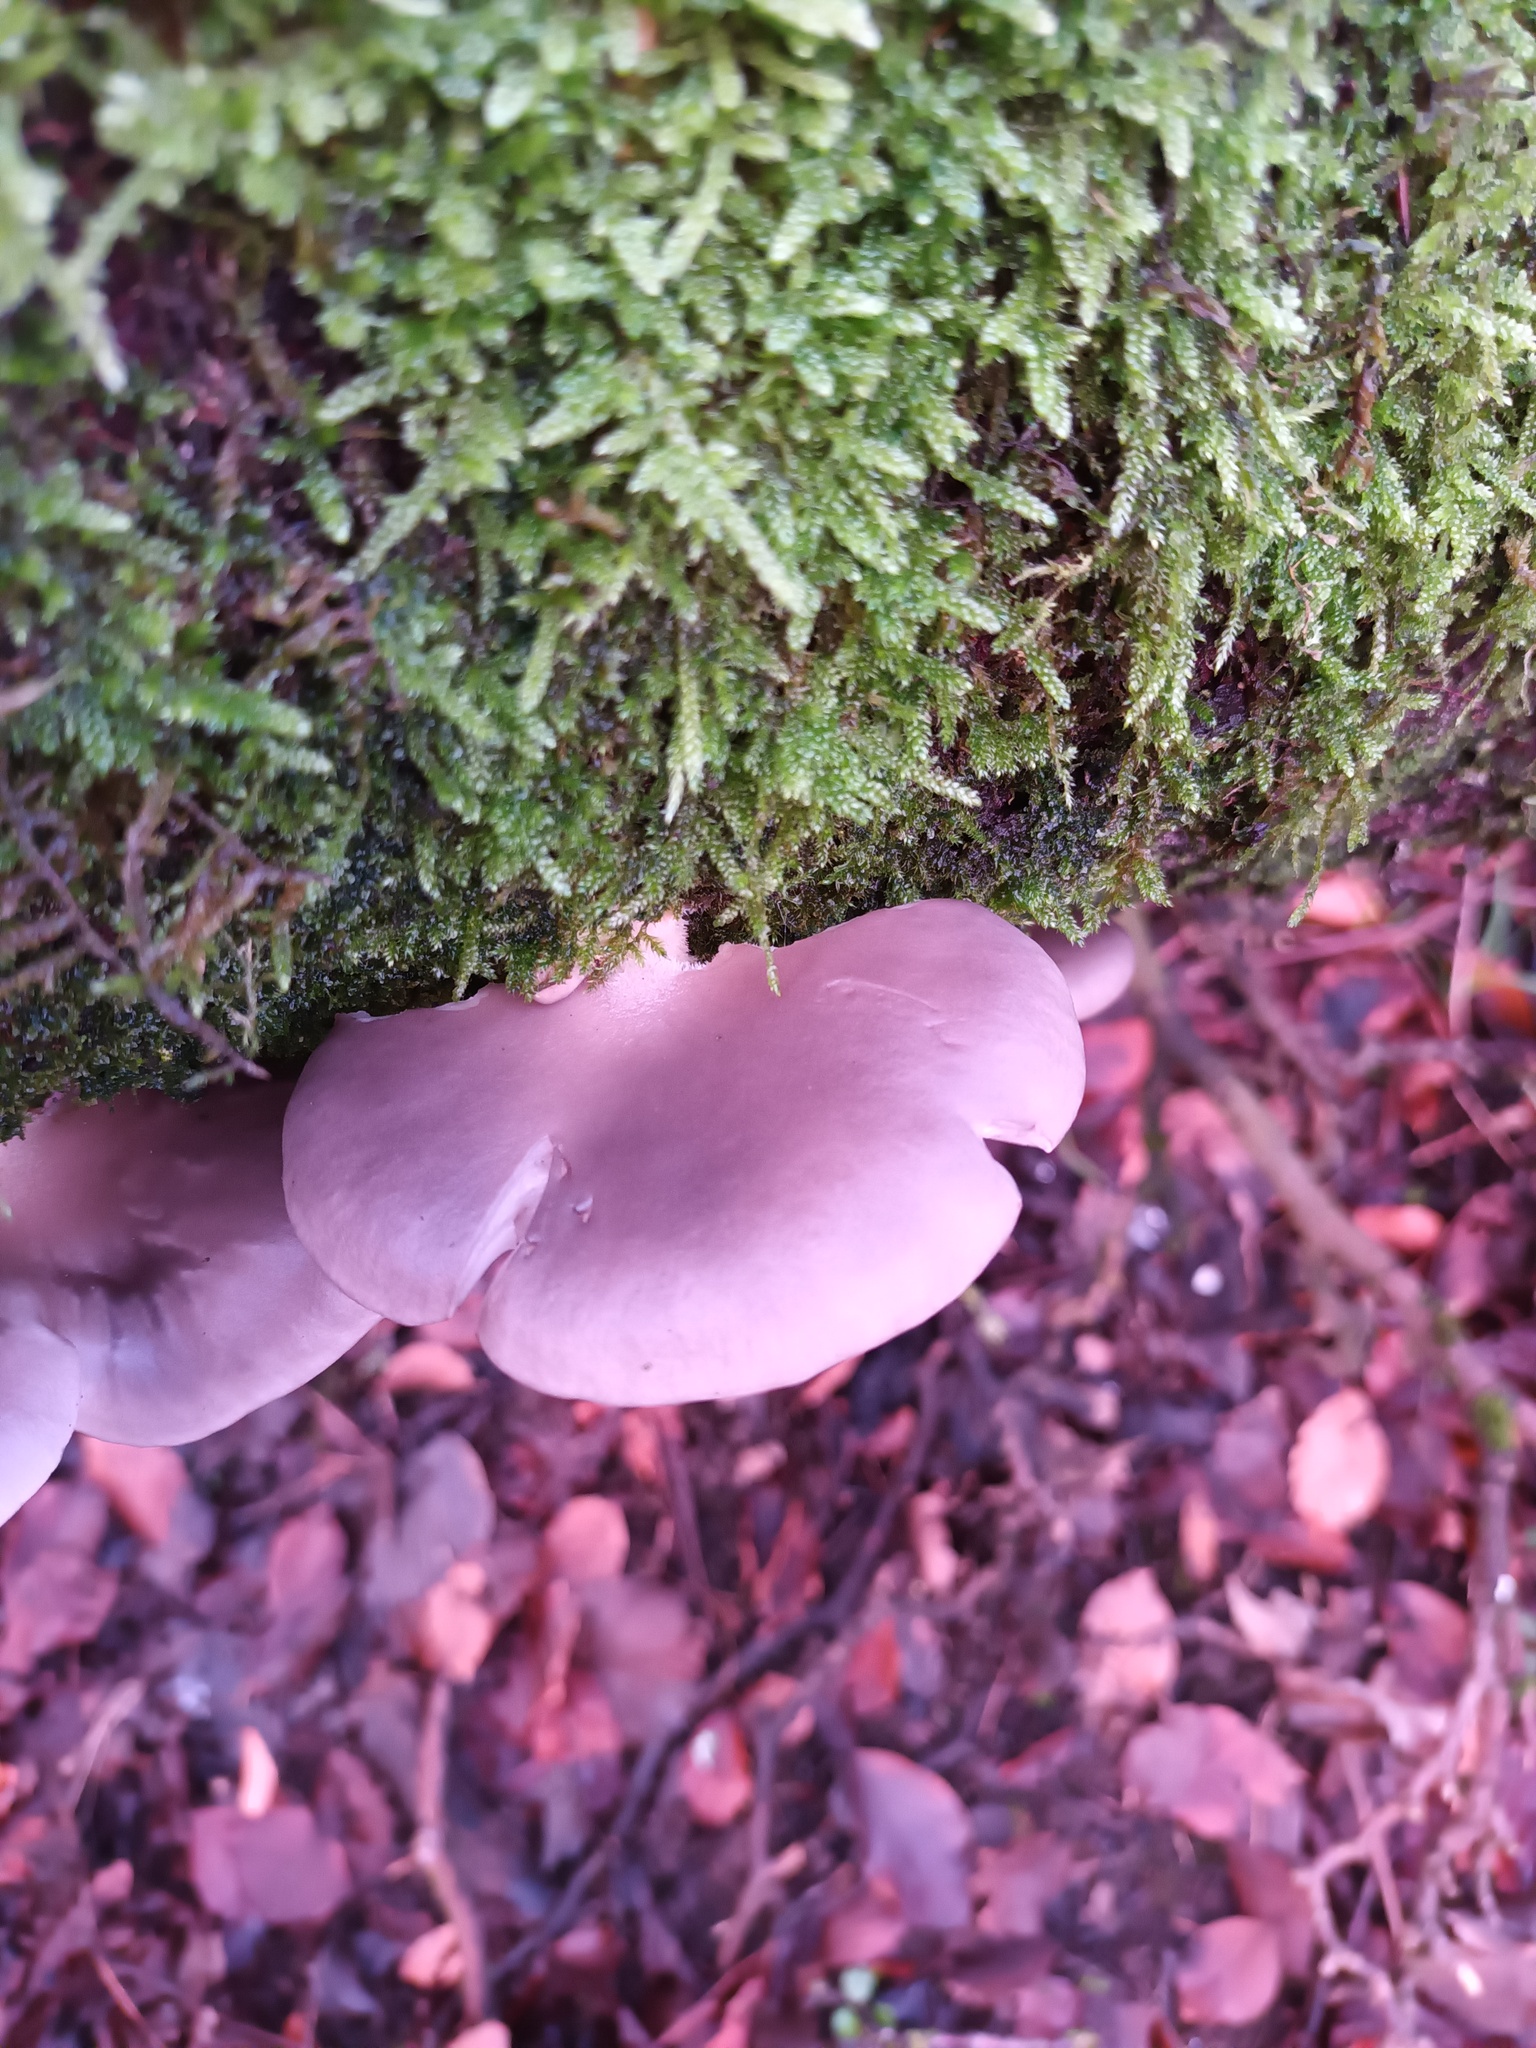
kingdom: Fungi
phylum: Basidiomycota
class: Agaricomycetes
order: Agaricales
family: Pleurotaceae
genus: Pleurotus
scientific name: Pleurotus ostreatus
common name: Oyster mushroom
